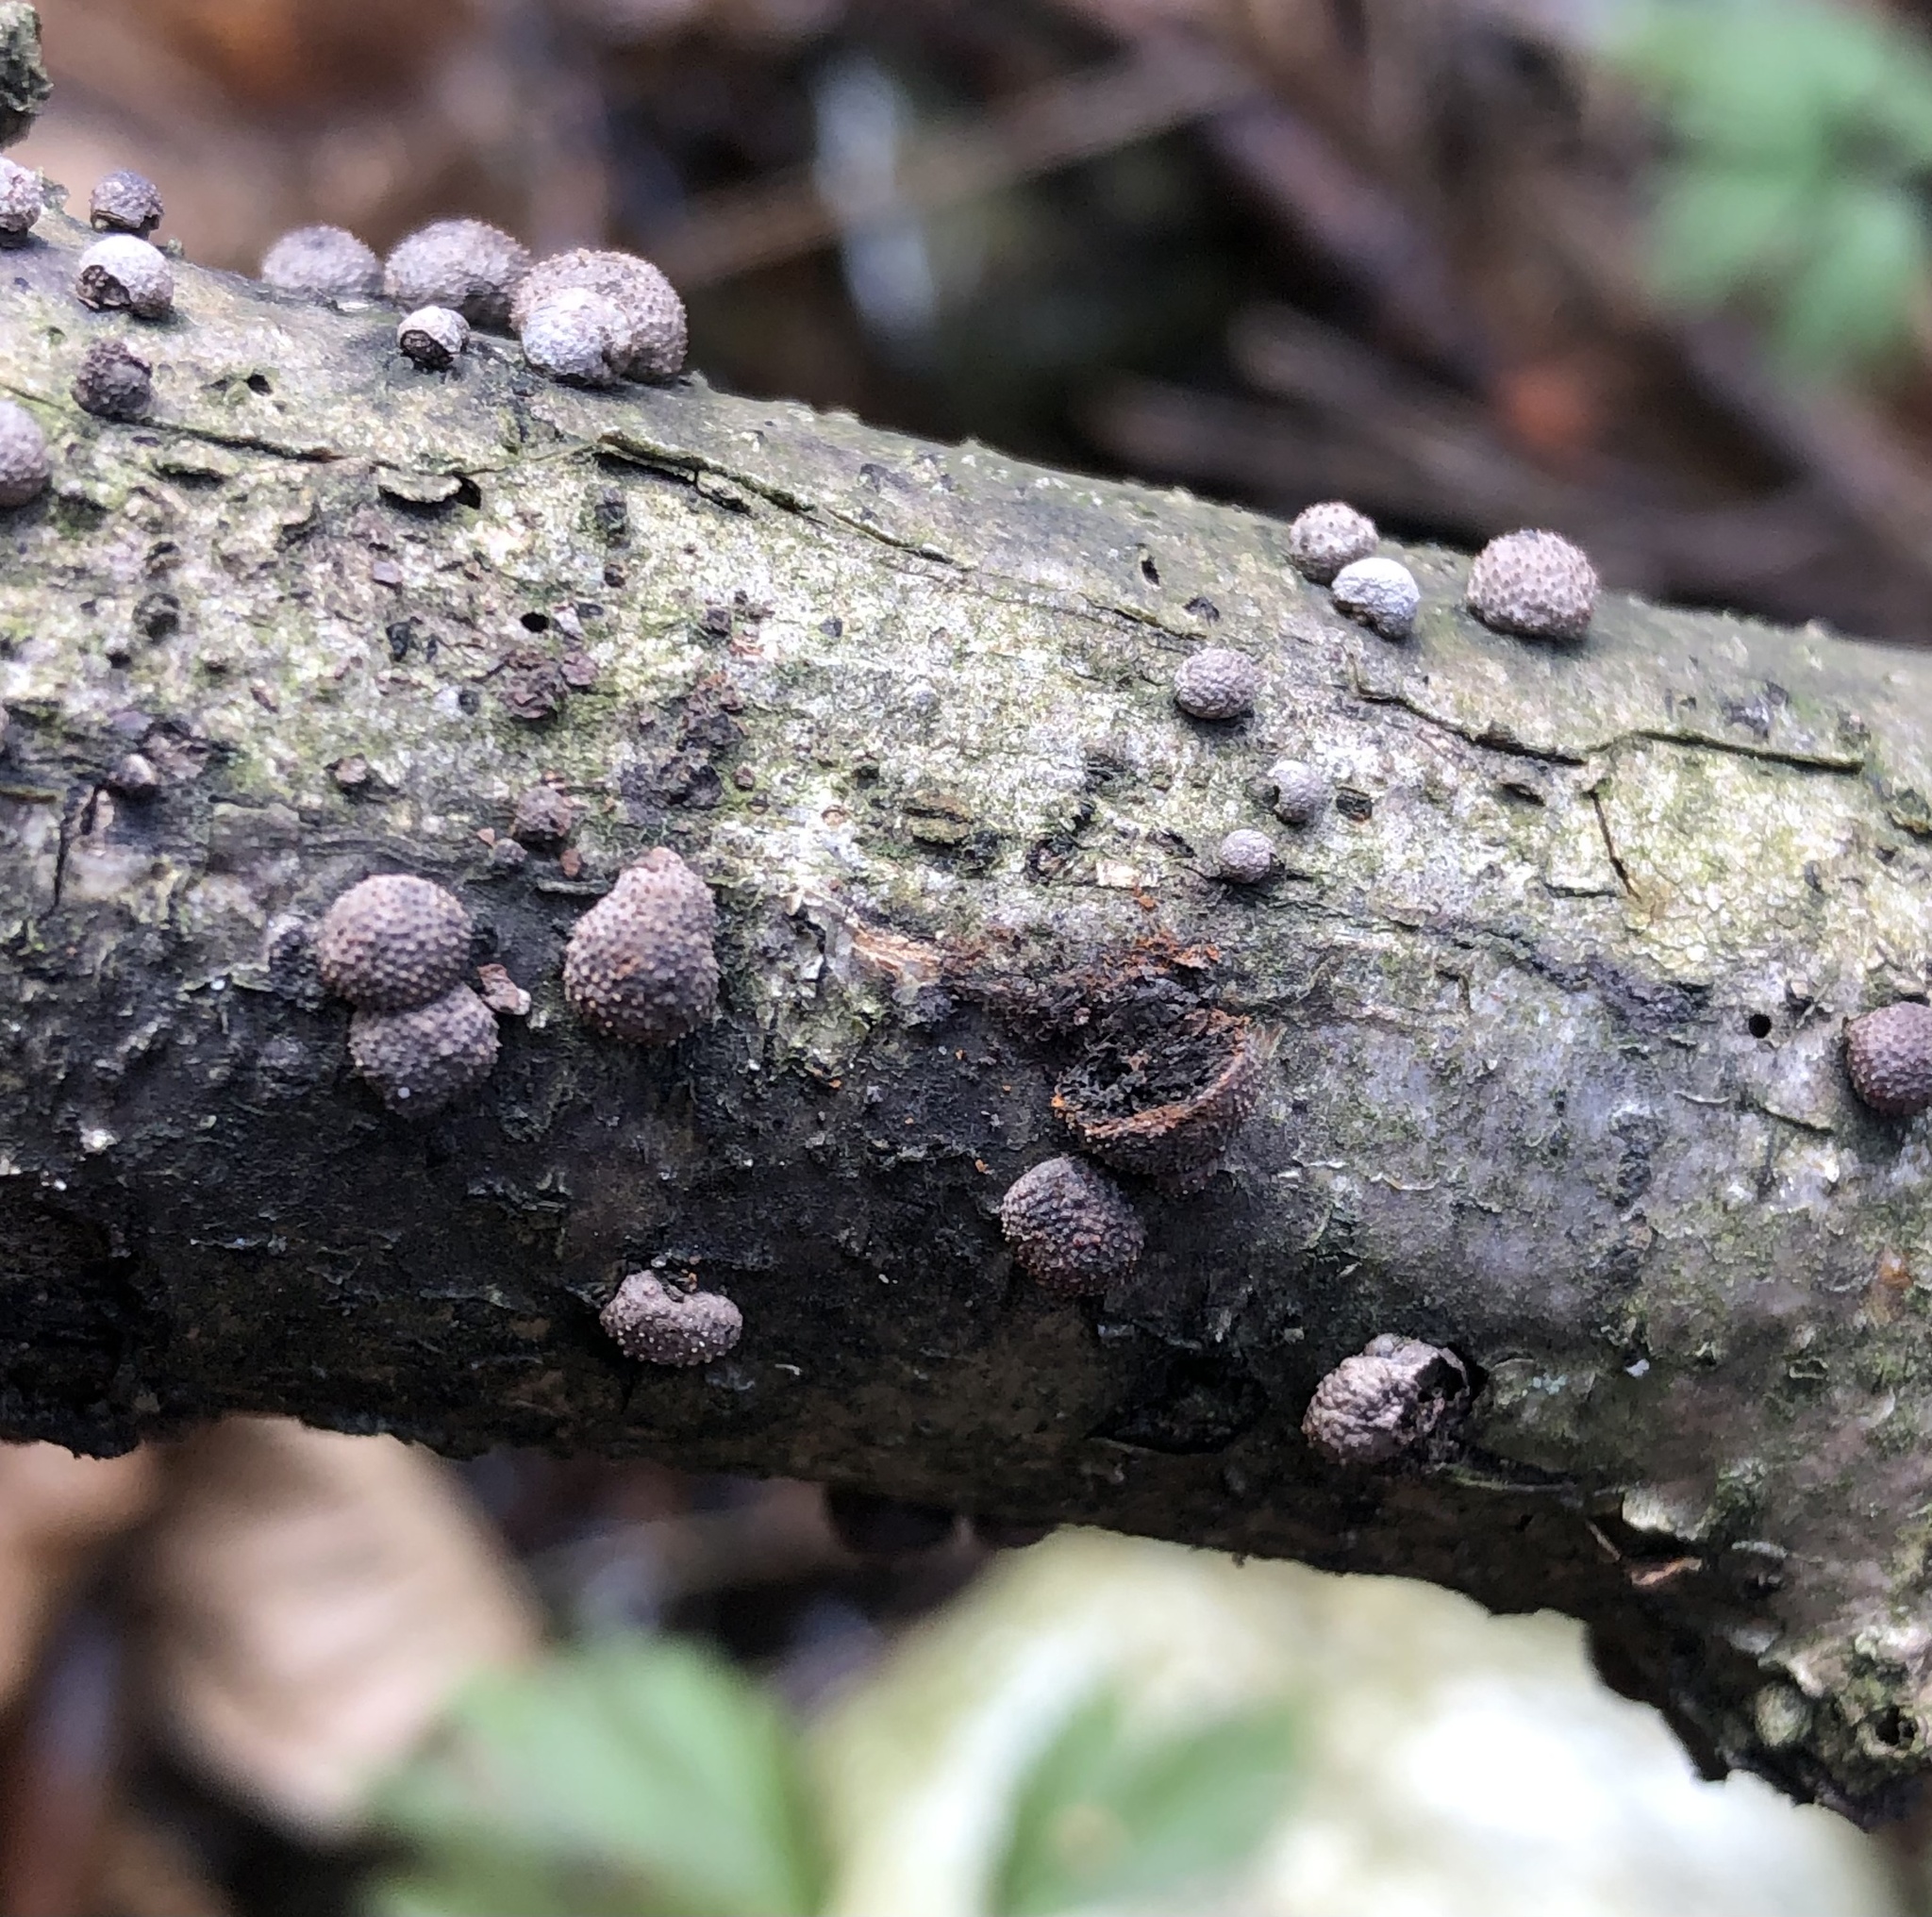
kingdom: Fungi
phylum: Ascomycota
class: Sordariomycetes
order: Xylariales
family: Hypoxylaceae
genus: Hypoxylon
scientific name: Hypoxylon fragiforme
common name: Beech woodwart
